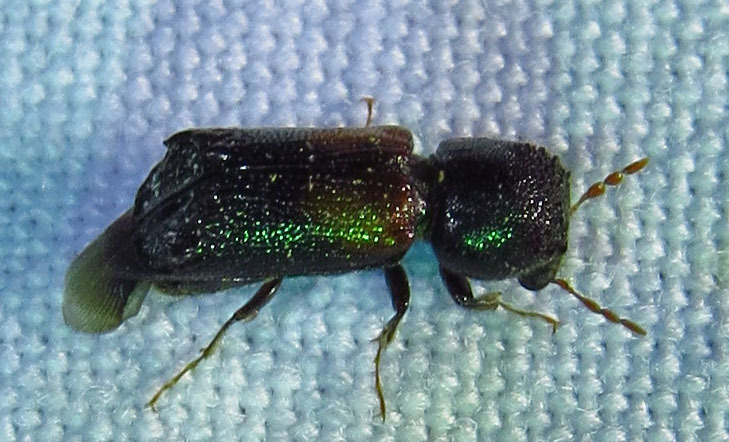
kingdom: Animalia
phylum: Arthropoda
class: Insecta
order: Coleoptera
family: Bostrichidae
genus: Xylobiops
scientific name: Xylobiops basilaris
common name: Red-shouldered bostrichid
